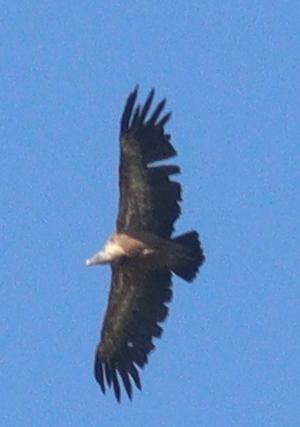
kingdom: Animalia
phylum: Chordata
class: Aves
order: Accipitriformes
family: Accipitridae
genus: Gyps
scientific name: Gyps fulvus
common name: Griffon vulture
